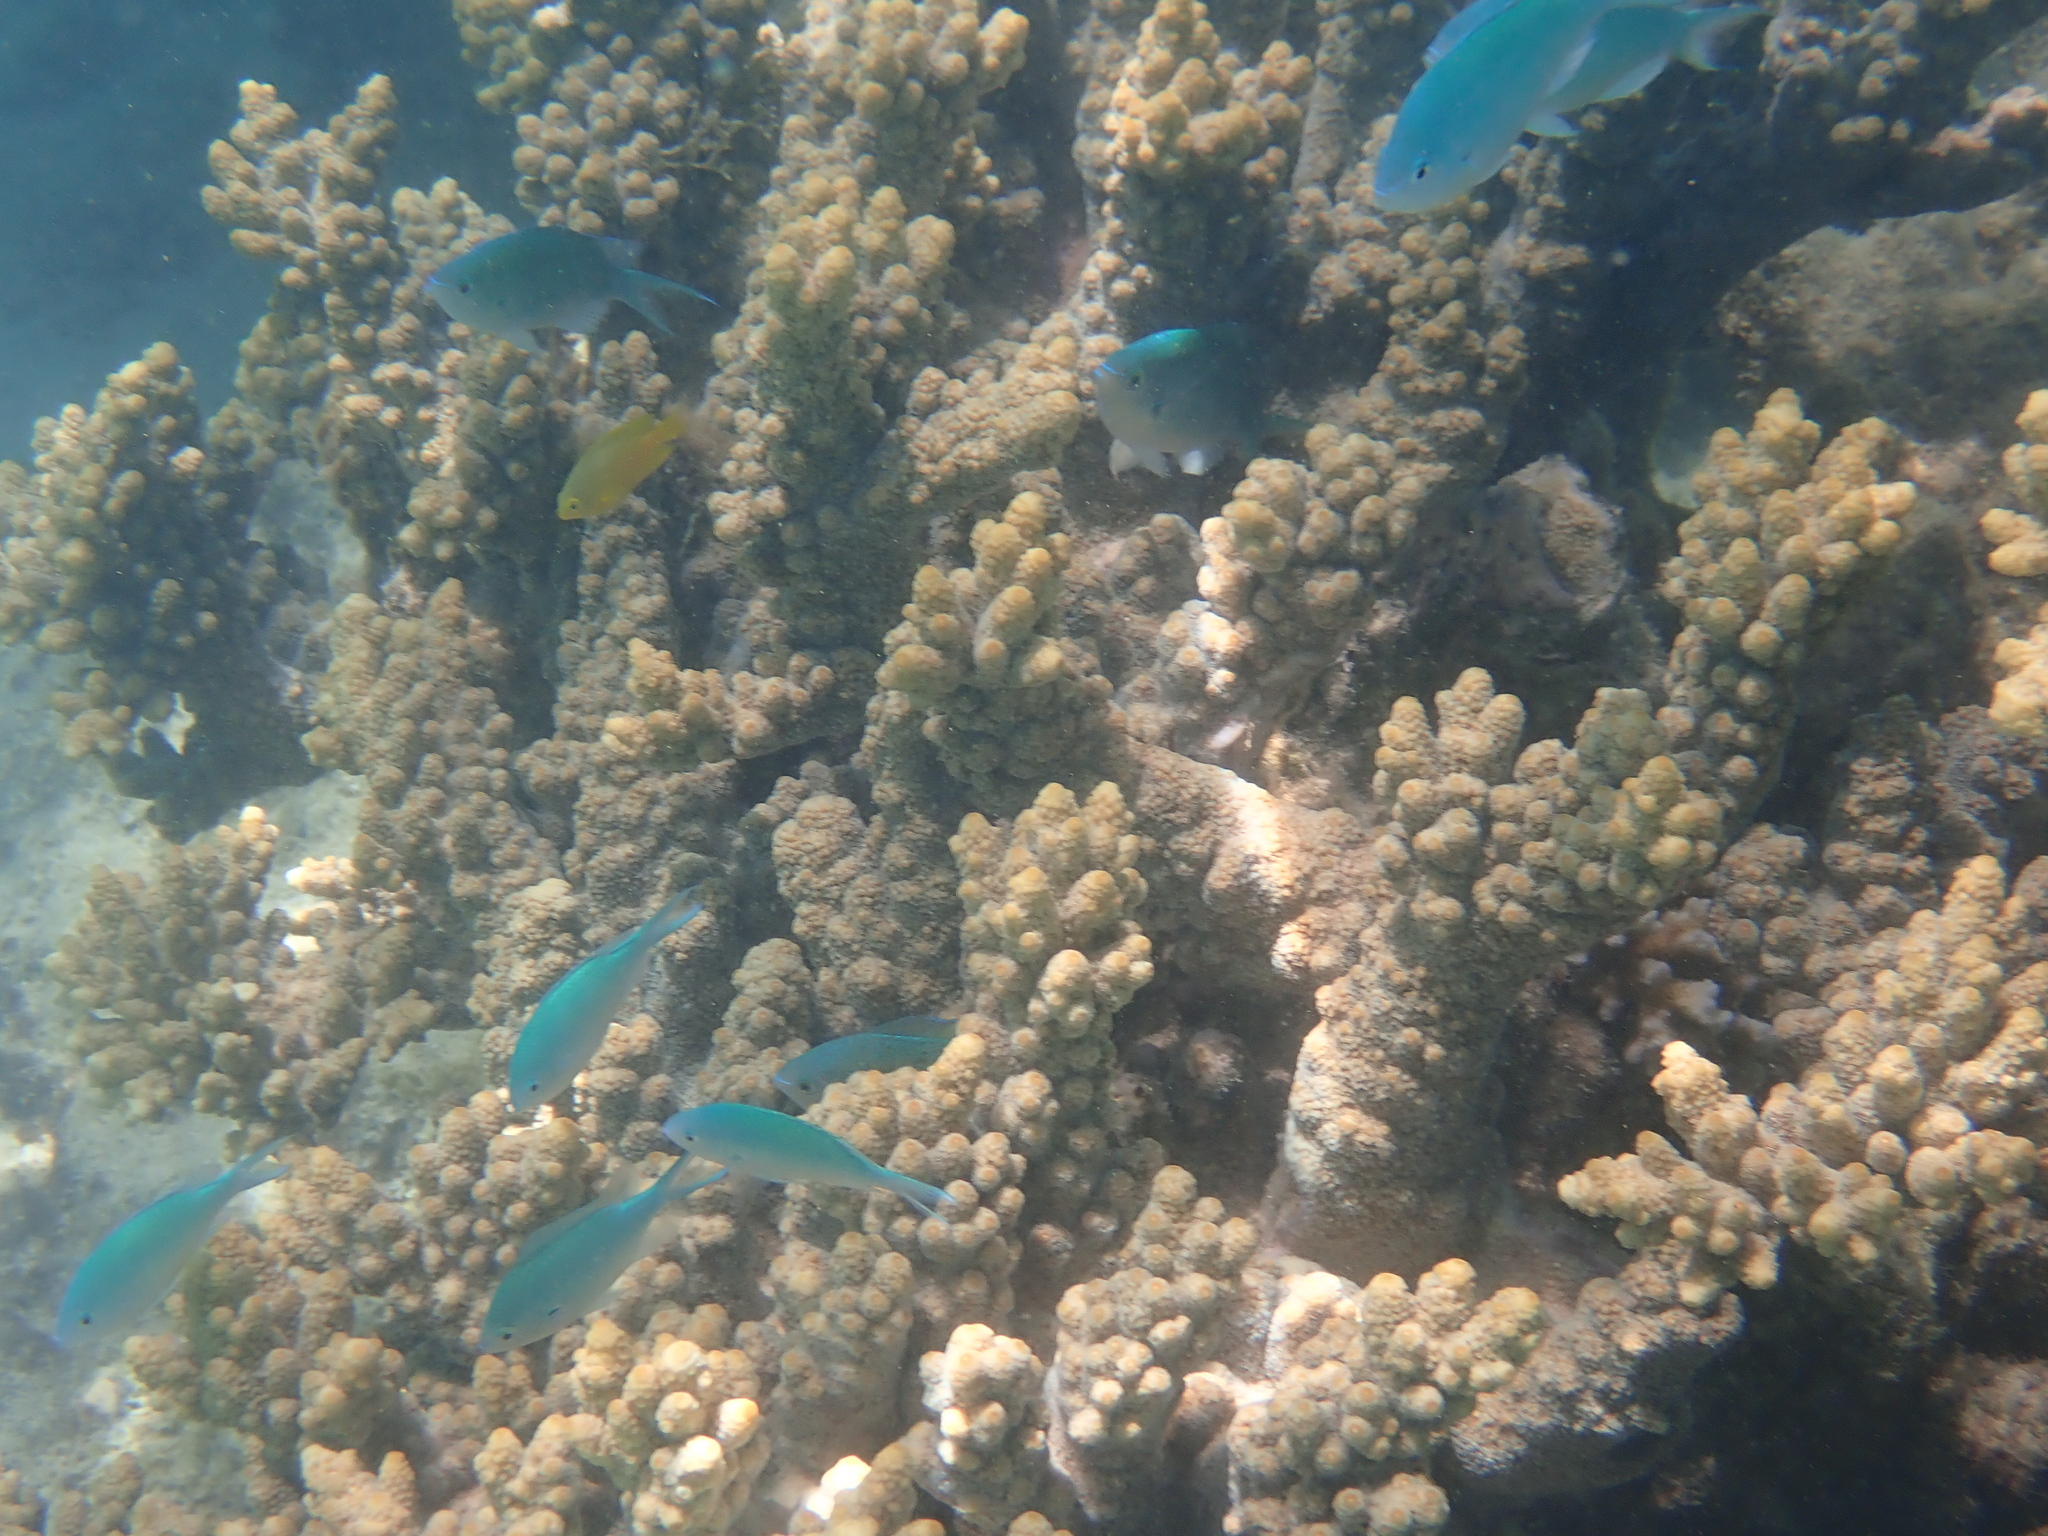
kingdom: Animalia
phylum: Chordata
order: Perciformes
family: Pomacentridae
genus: Chromis
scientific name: Chromis viridis
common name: Blue-green chromis
